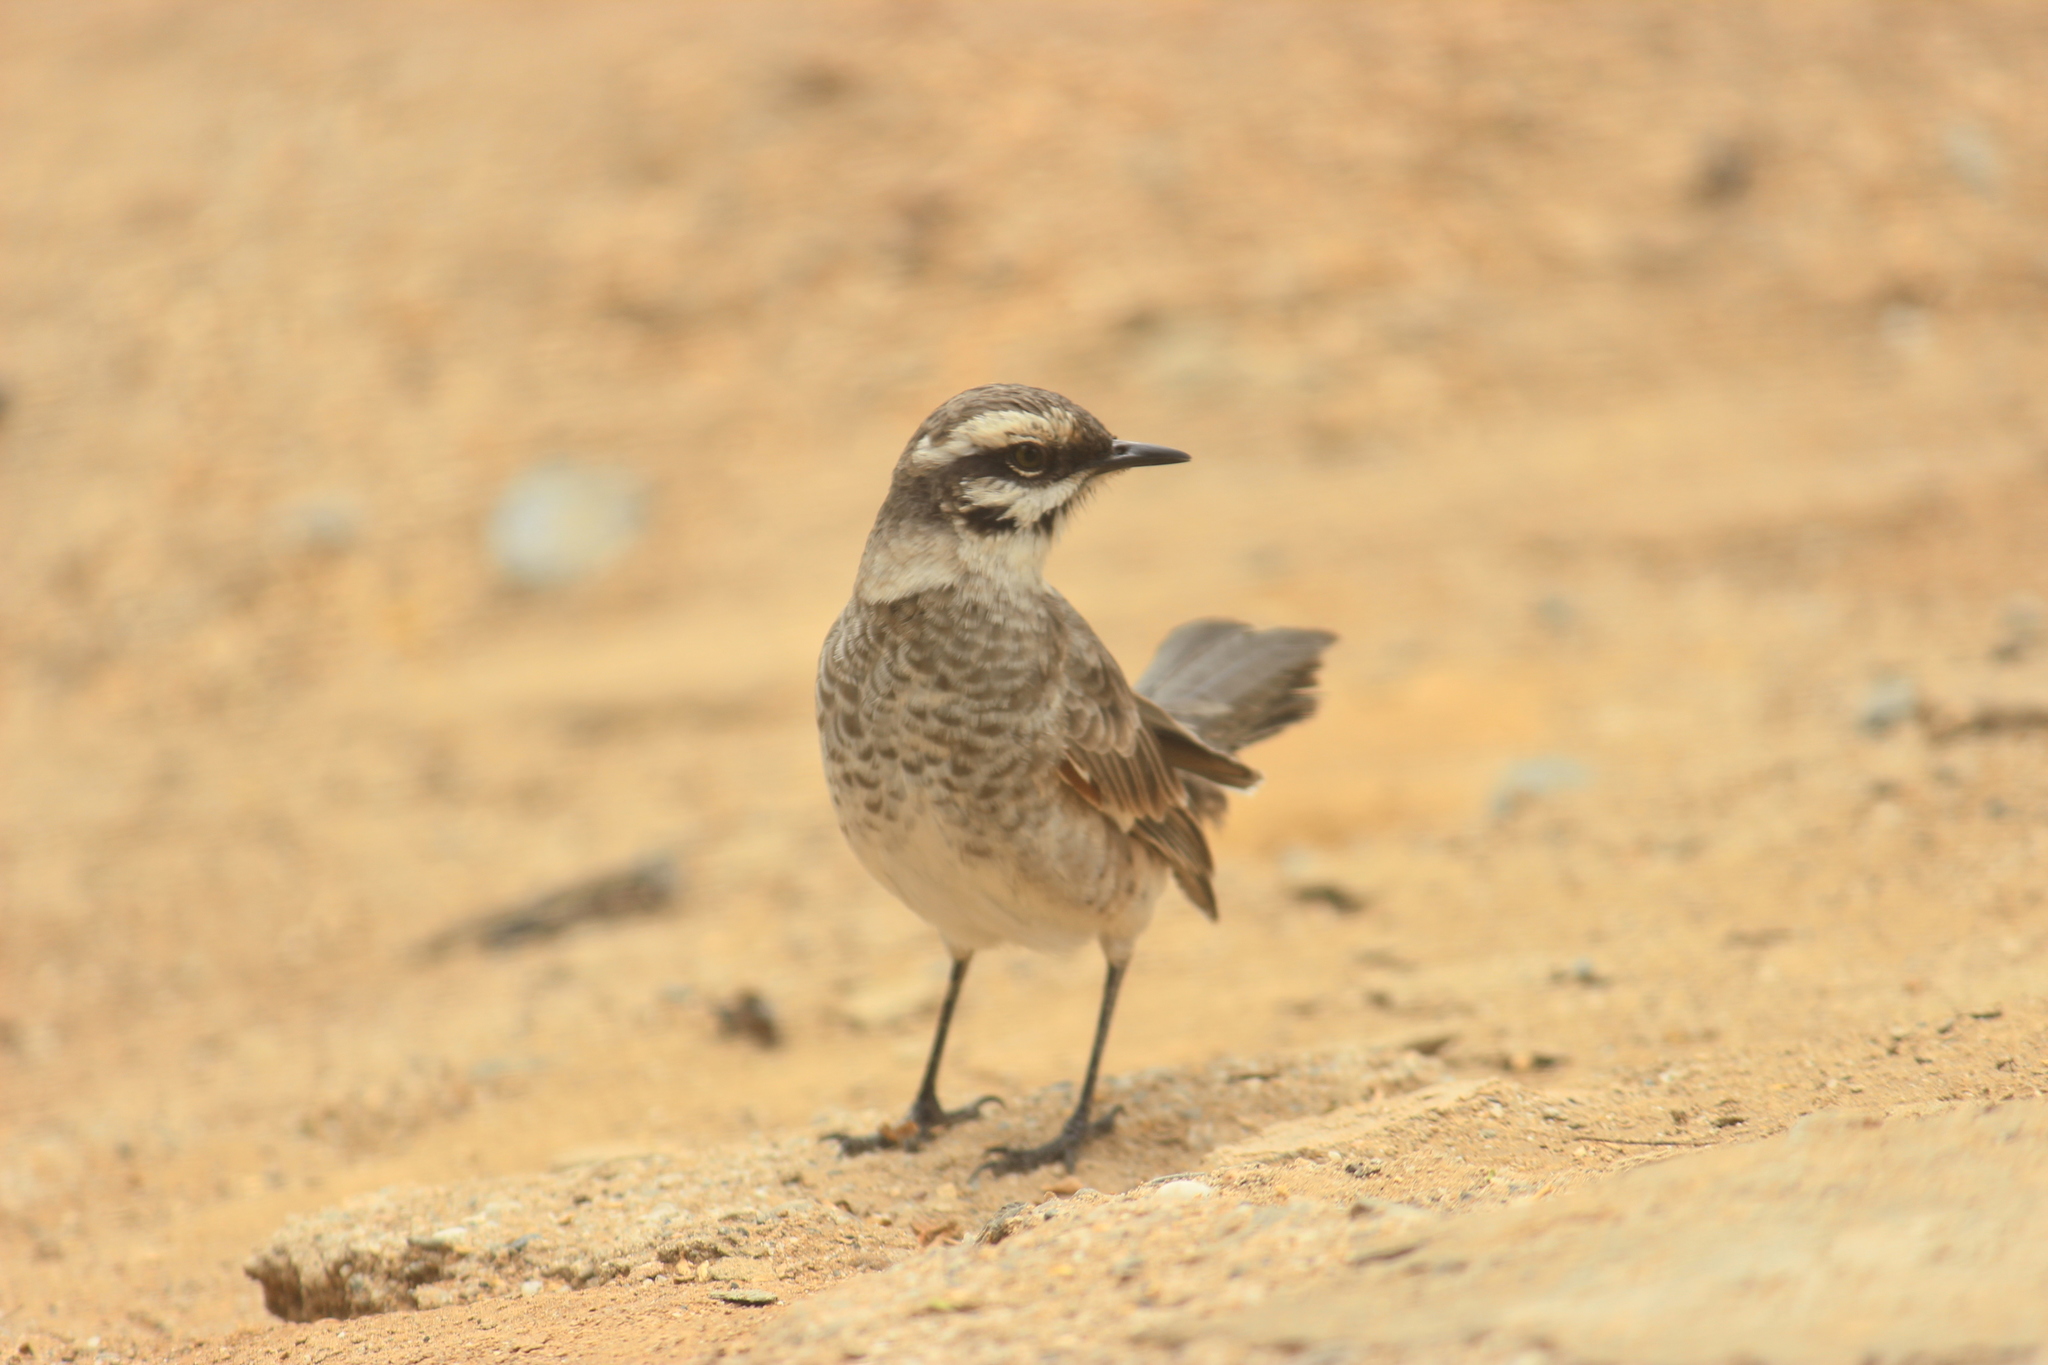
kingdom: Animalia
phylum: Chordata
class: Aves
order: Passeriformes
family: Mimidae
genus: Mimus
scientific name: Mimus longicaudatus
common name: Long-tailed mockingbird
